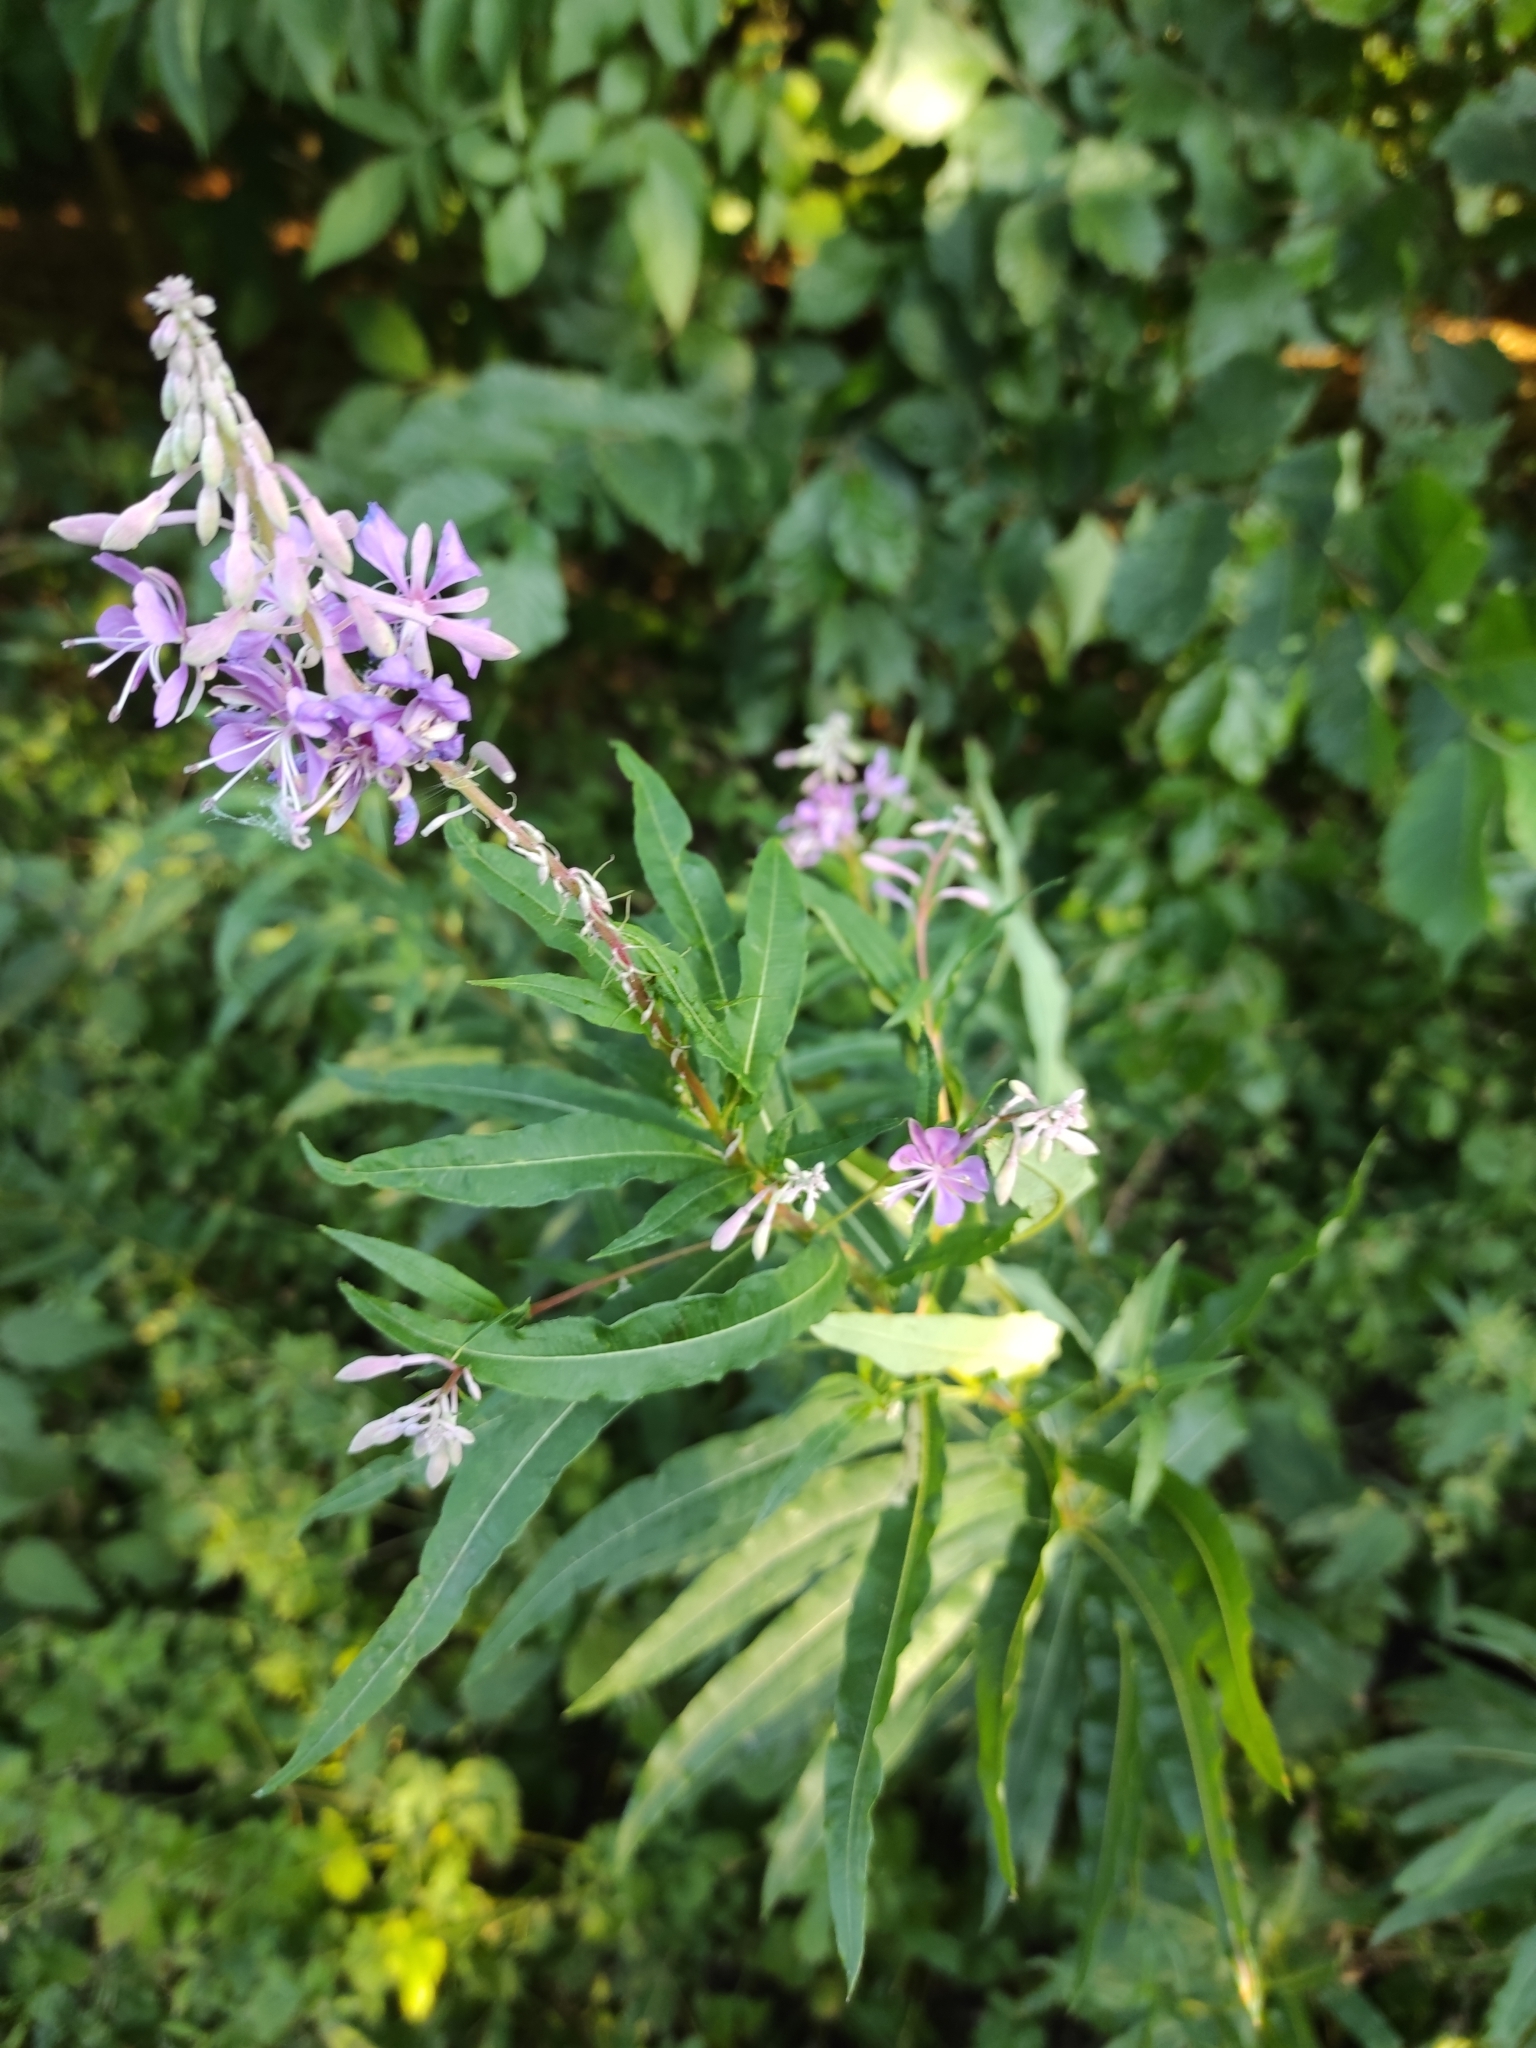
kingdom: Plantae
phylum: Tracheophyta
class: Magnoliopsida
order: Myrtales
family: Onagraceae
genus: Chamaenerion
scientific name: Chamaenerion angustifolium
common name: Fireweed
